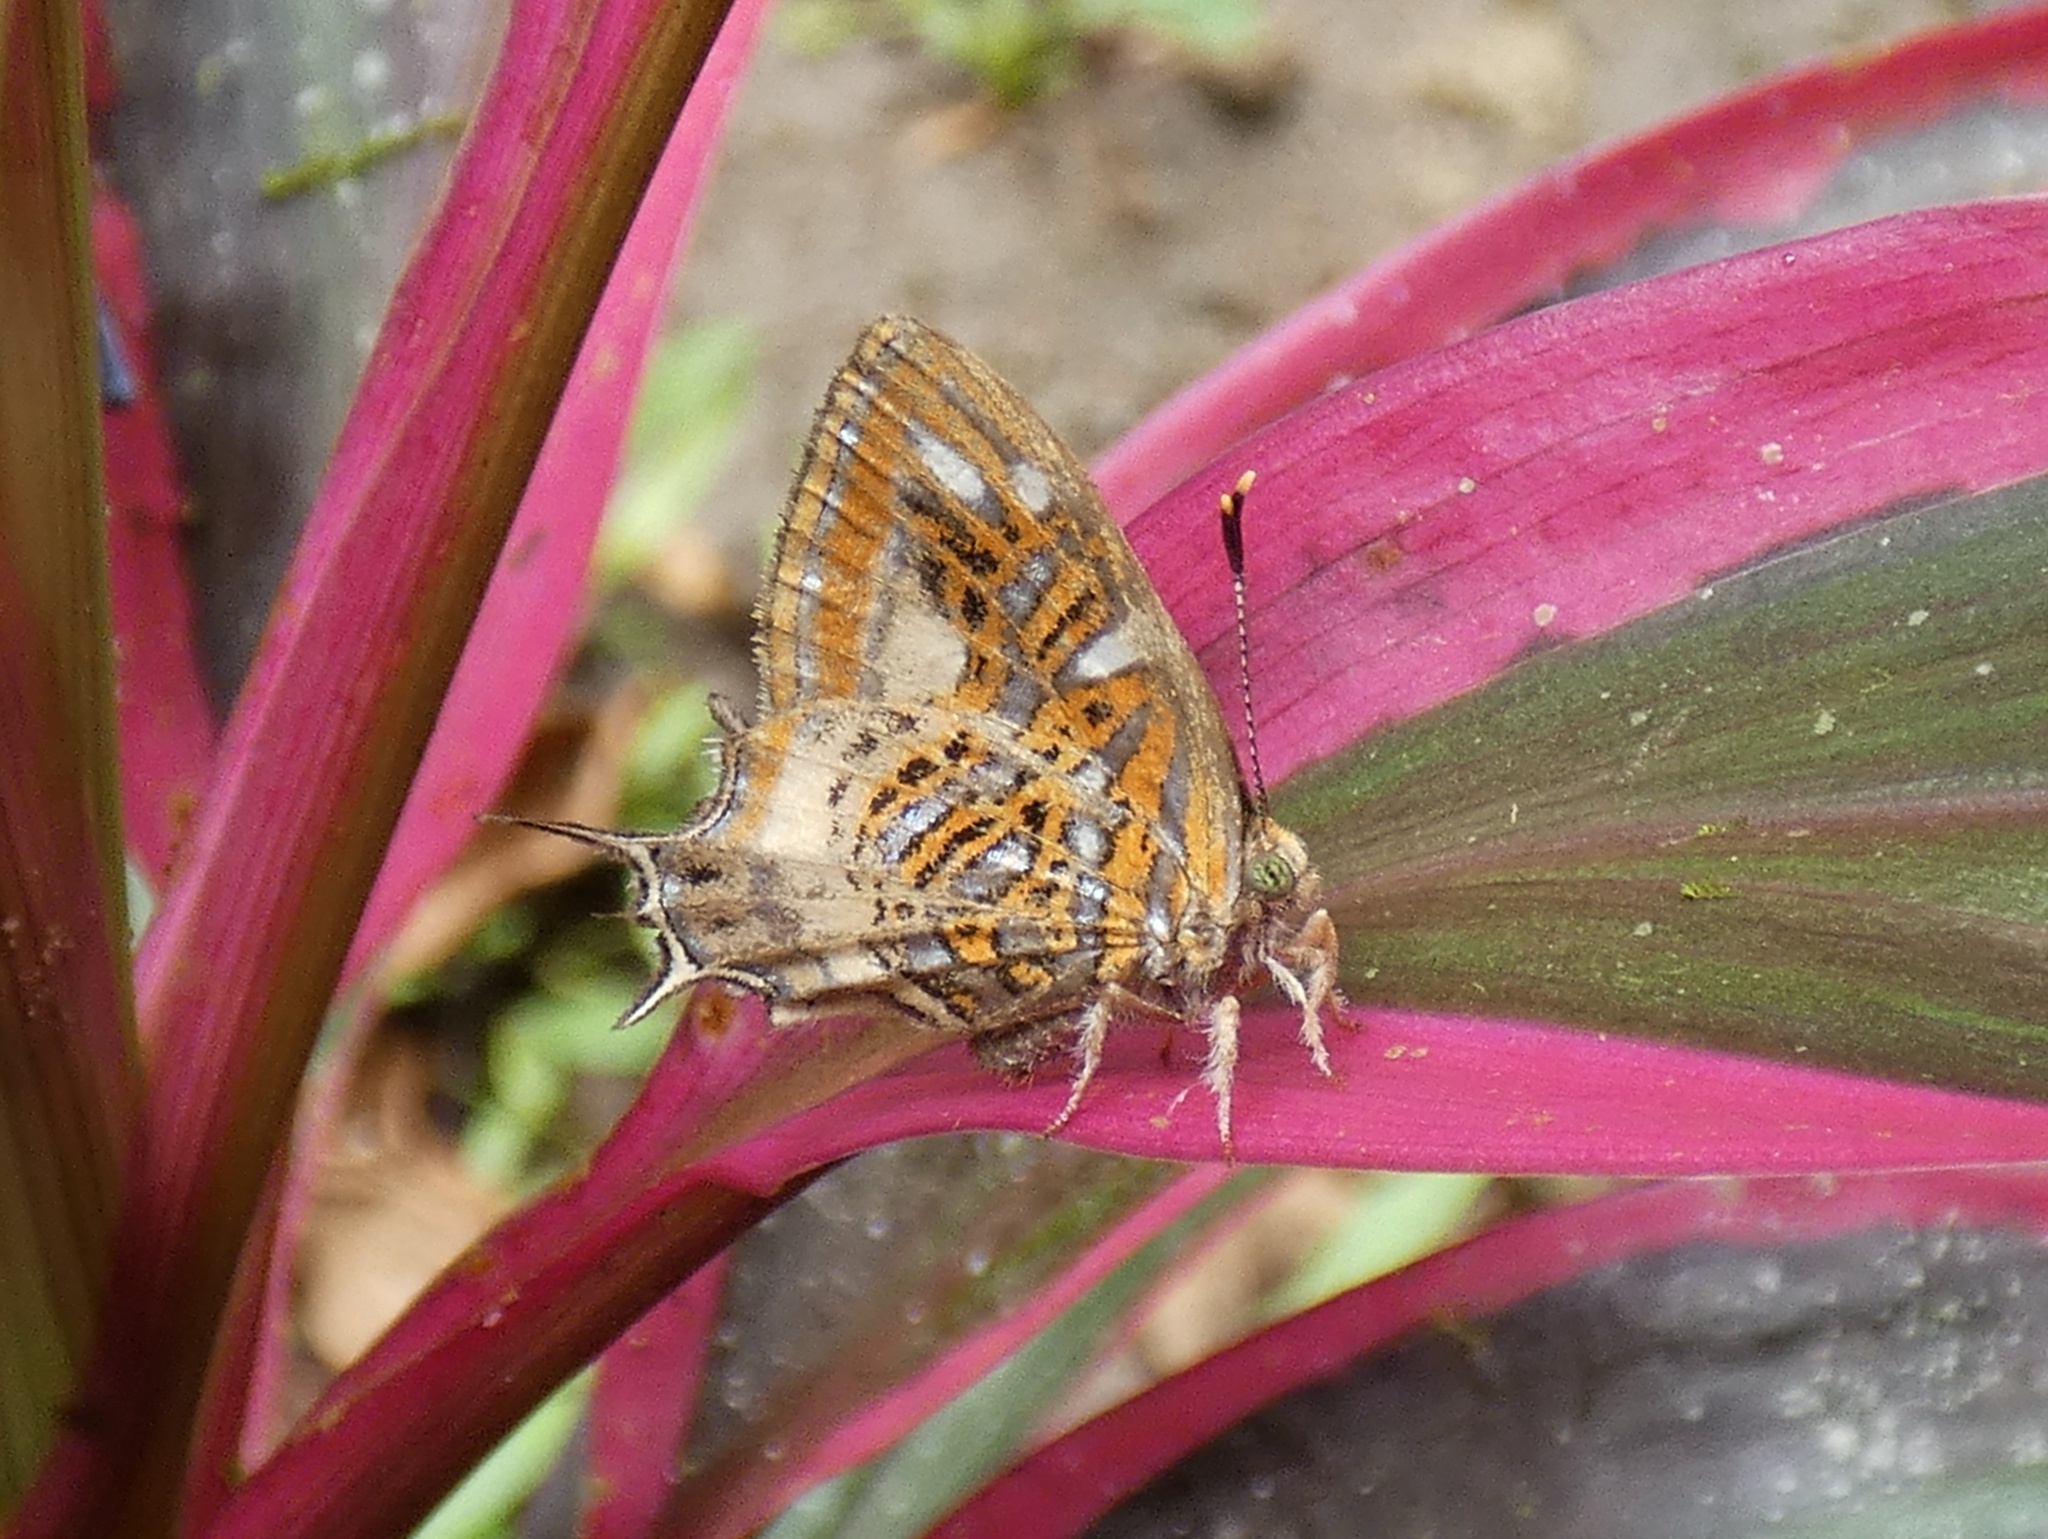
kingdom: Animalia
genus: Charis
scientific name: Charis chrysus
